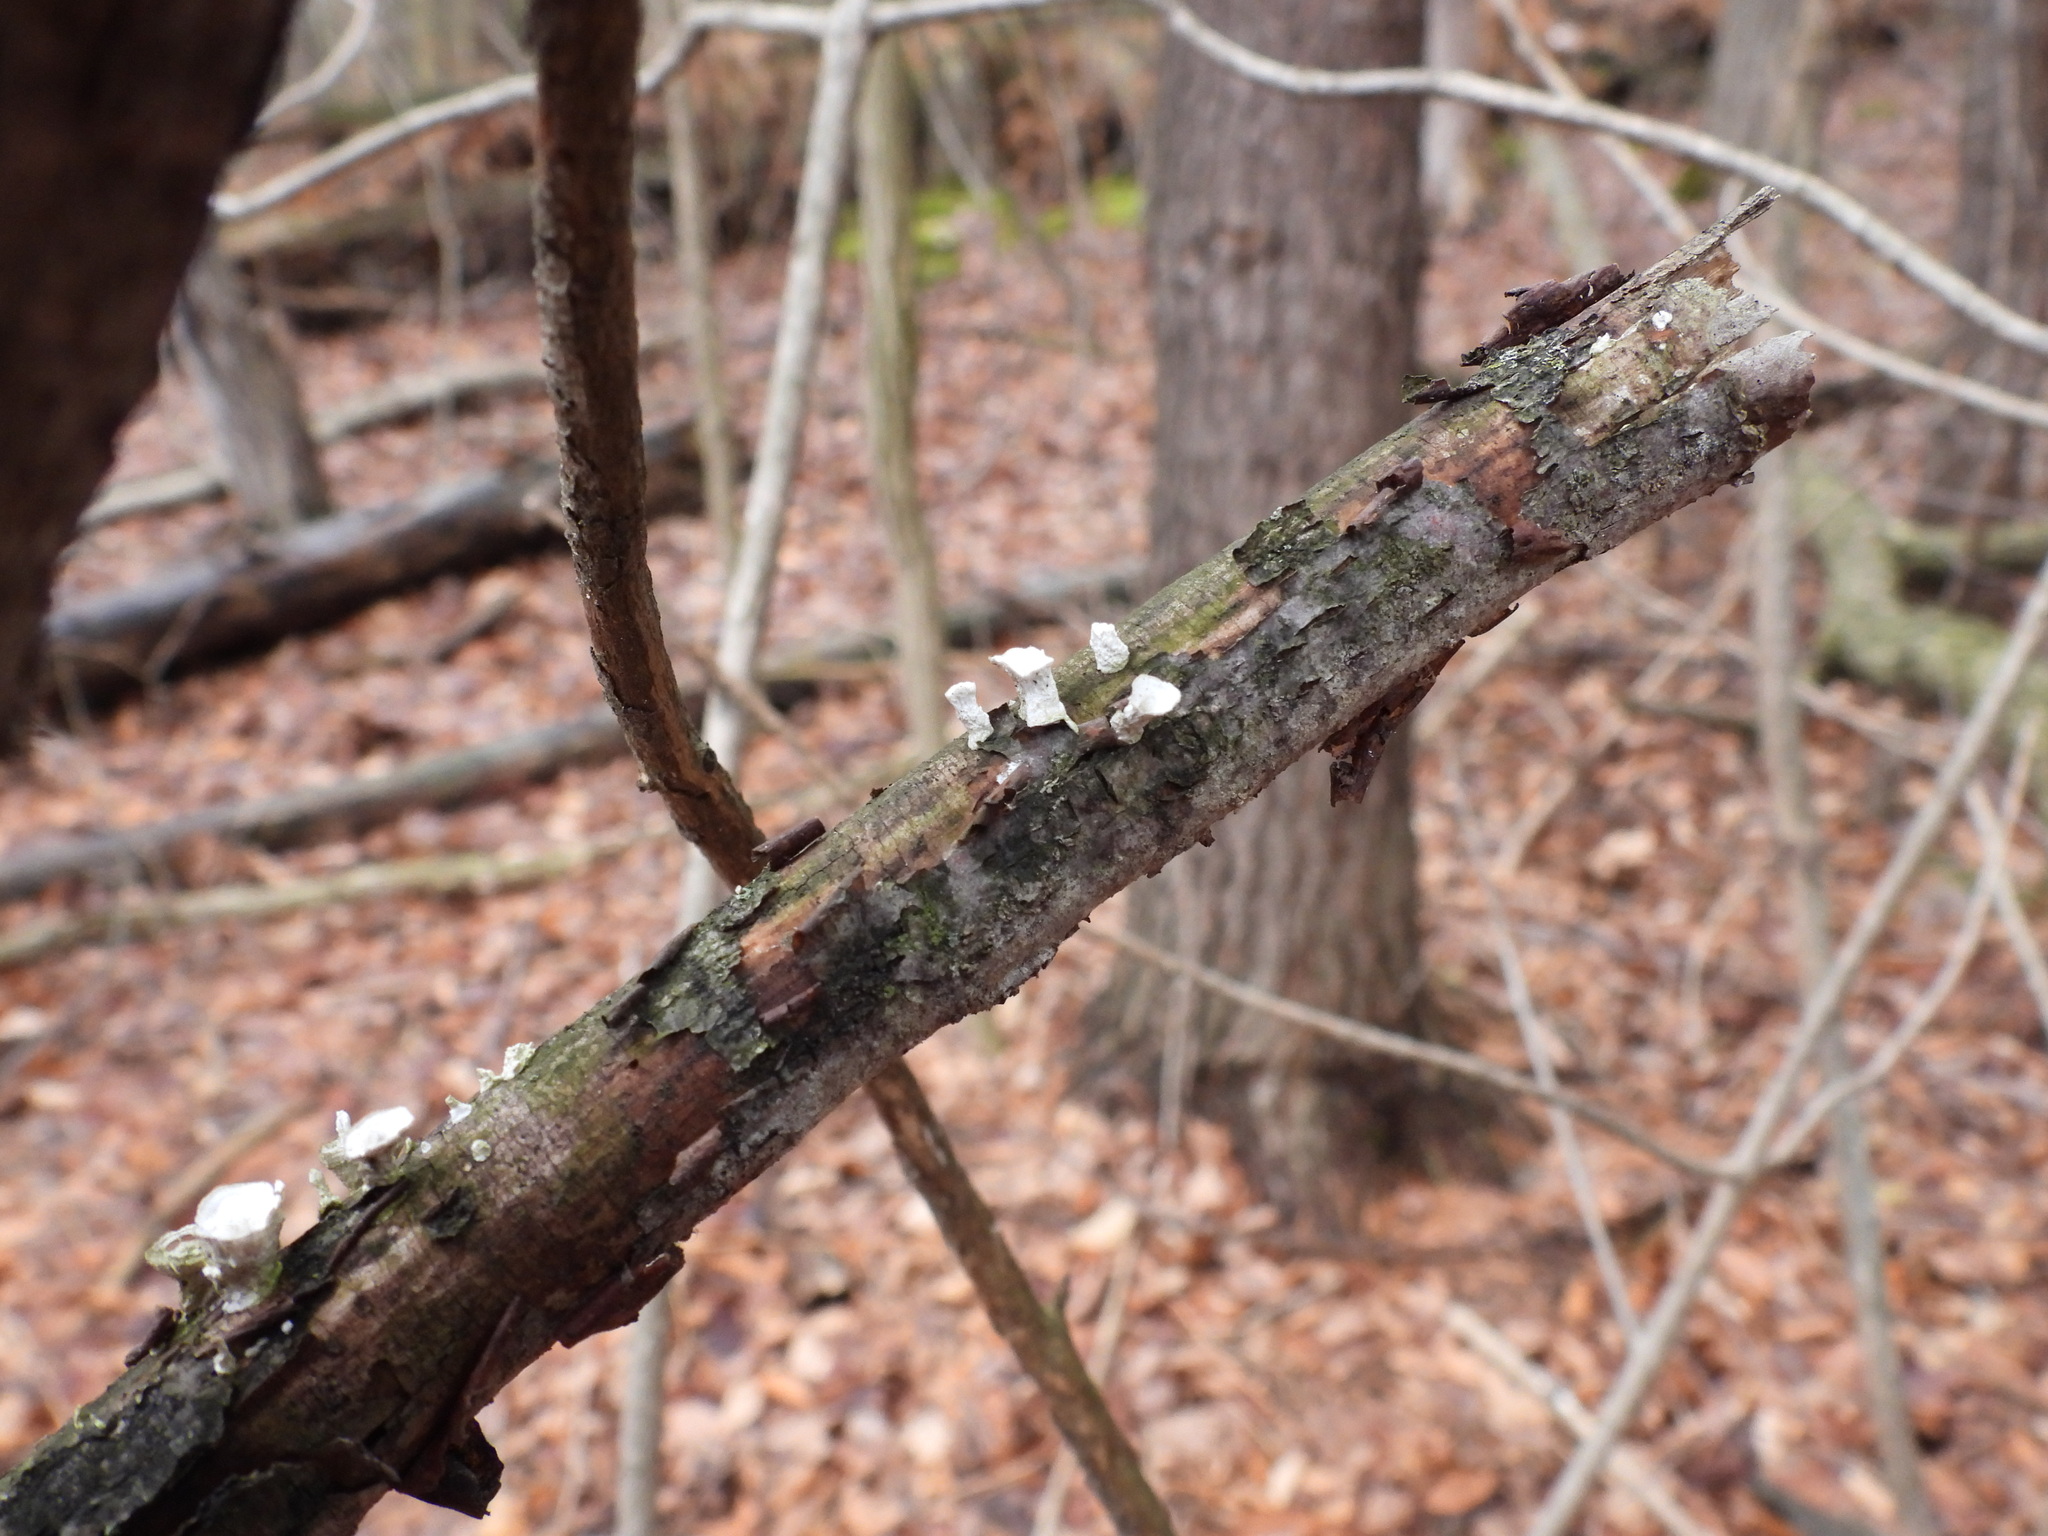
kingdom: Fungi
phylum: Basidiomycota
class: Agaricomycetes
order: Polyporales
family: Polyporaceae
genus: Poronidulus
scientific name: Poronidulus conchifer
